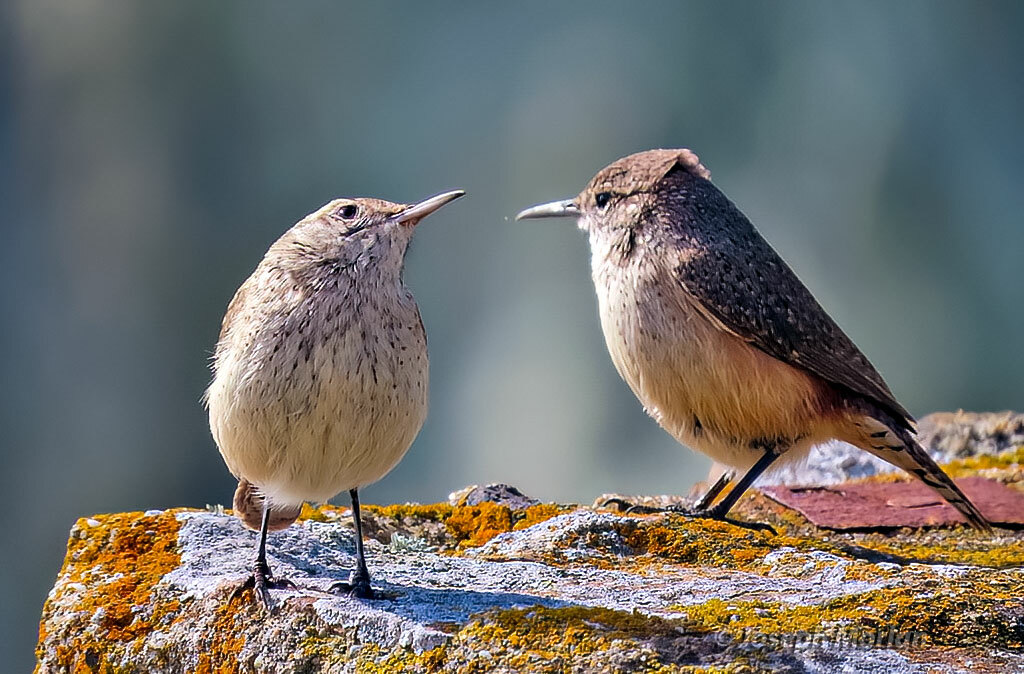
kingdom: Animalia
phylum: Chordata
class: Aves
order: Passeriformes
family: Troglodytidae
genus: Salpinctes
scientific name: Salpinctes obsoletus
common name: Rock wren
